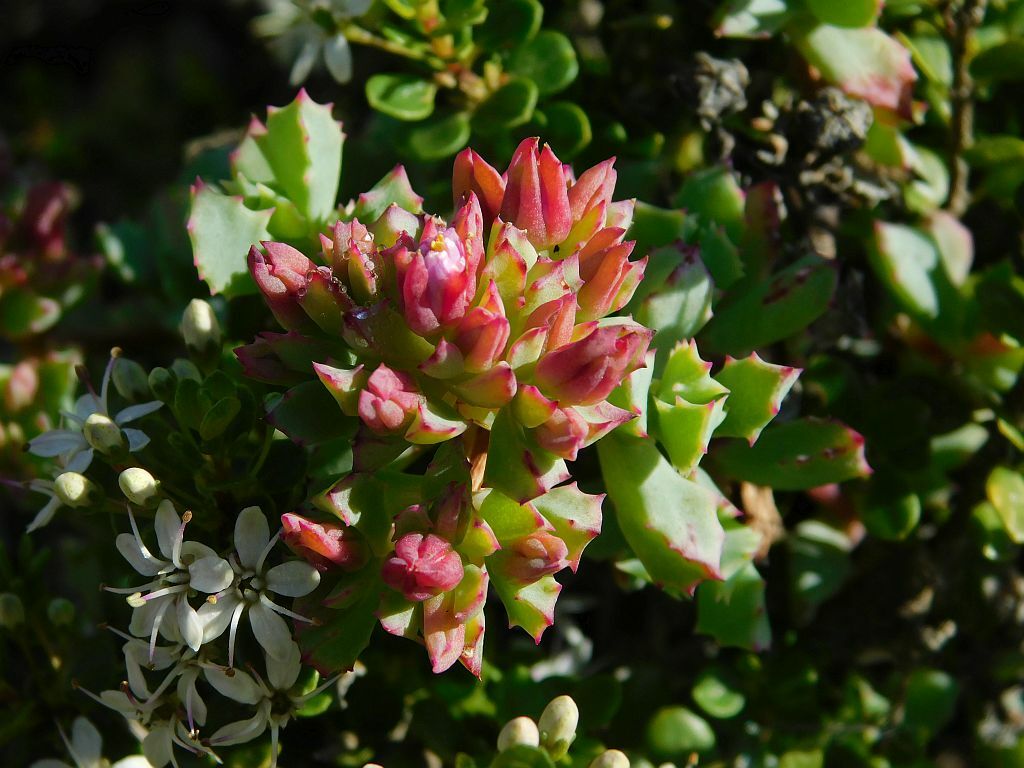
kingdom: Plantae
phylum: Tracheophyta
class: Magnoliopsida
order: Caryophyllales
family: Aizoaceae
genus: Oscularia
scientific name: Oscularia deltoides
